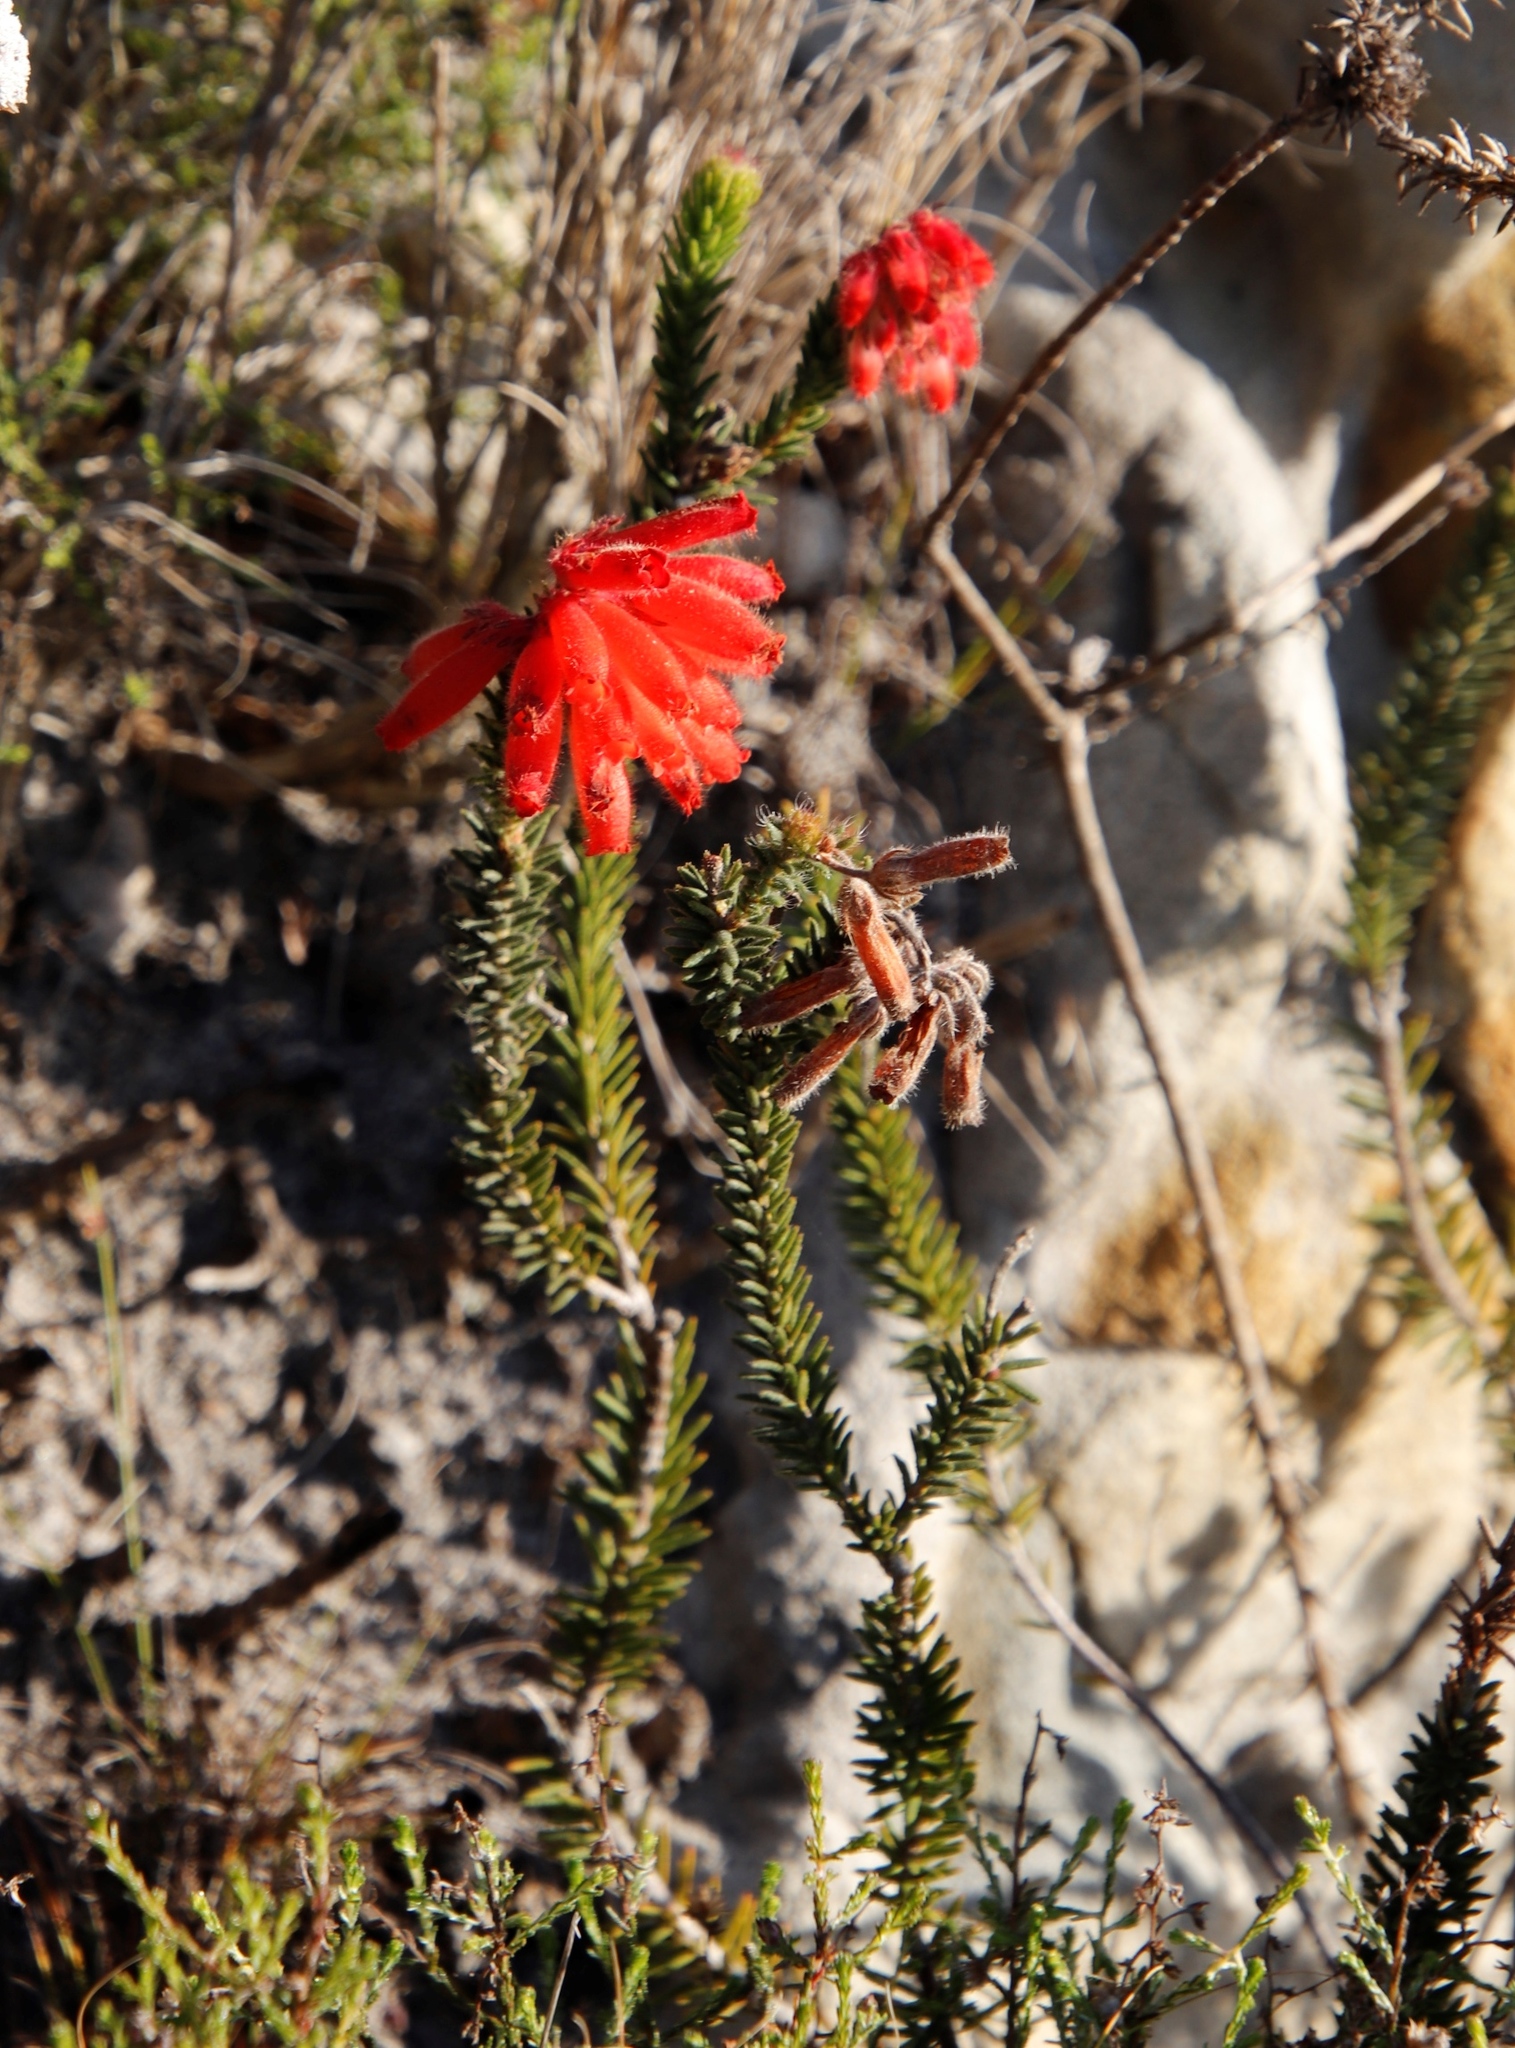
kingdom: Plantae
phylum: Tracheophyta
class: Magnoliopsida
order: Ericales
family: Ericaceae
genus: Erica
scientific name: Erica cerinthoides
